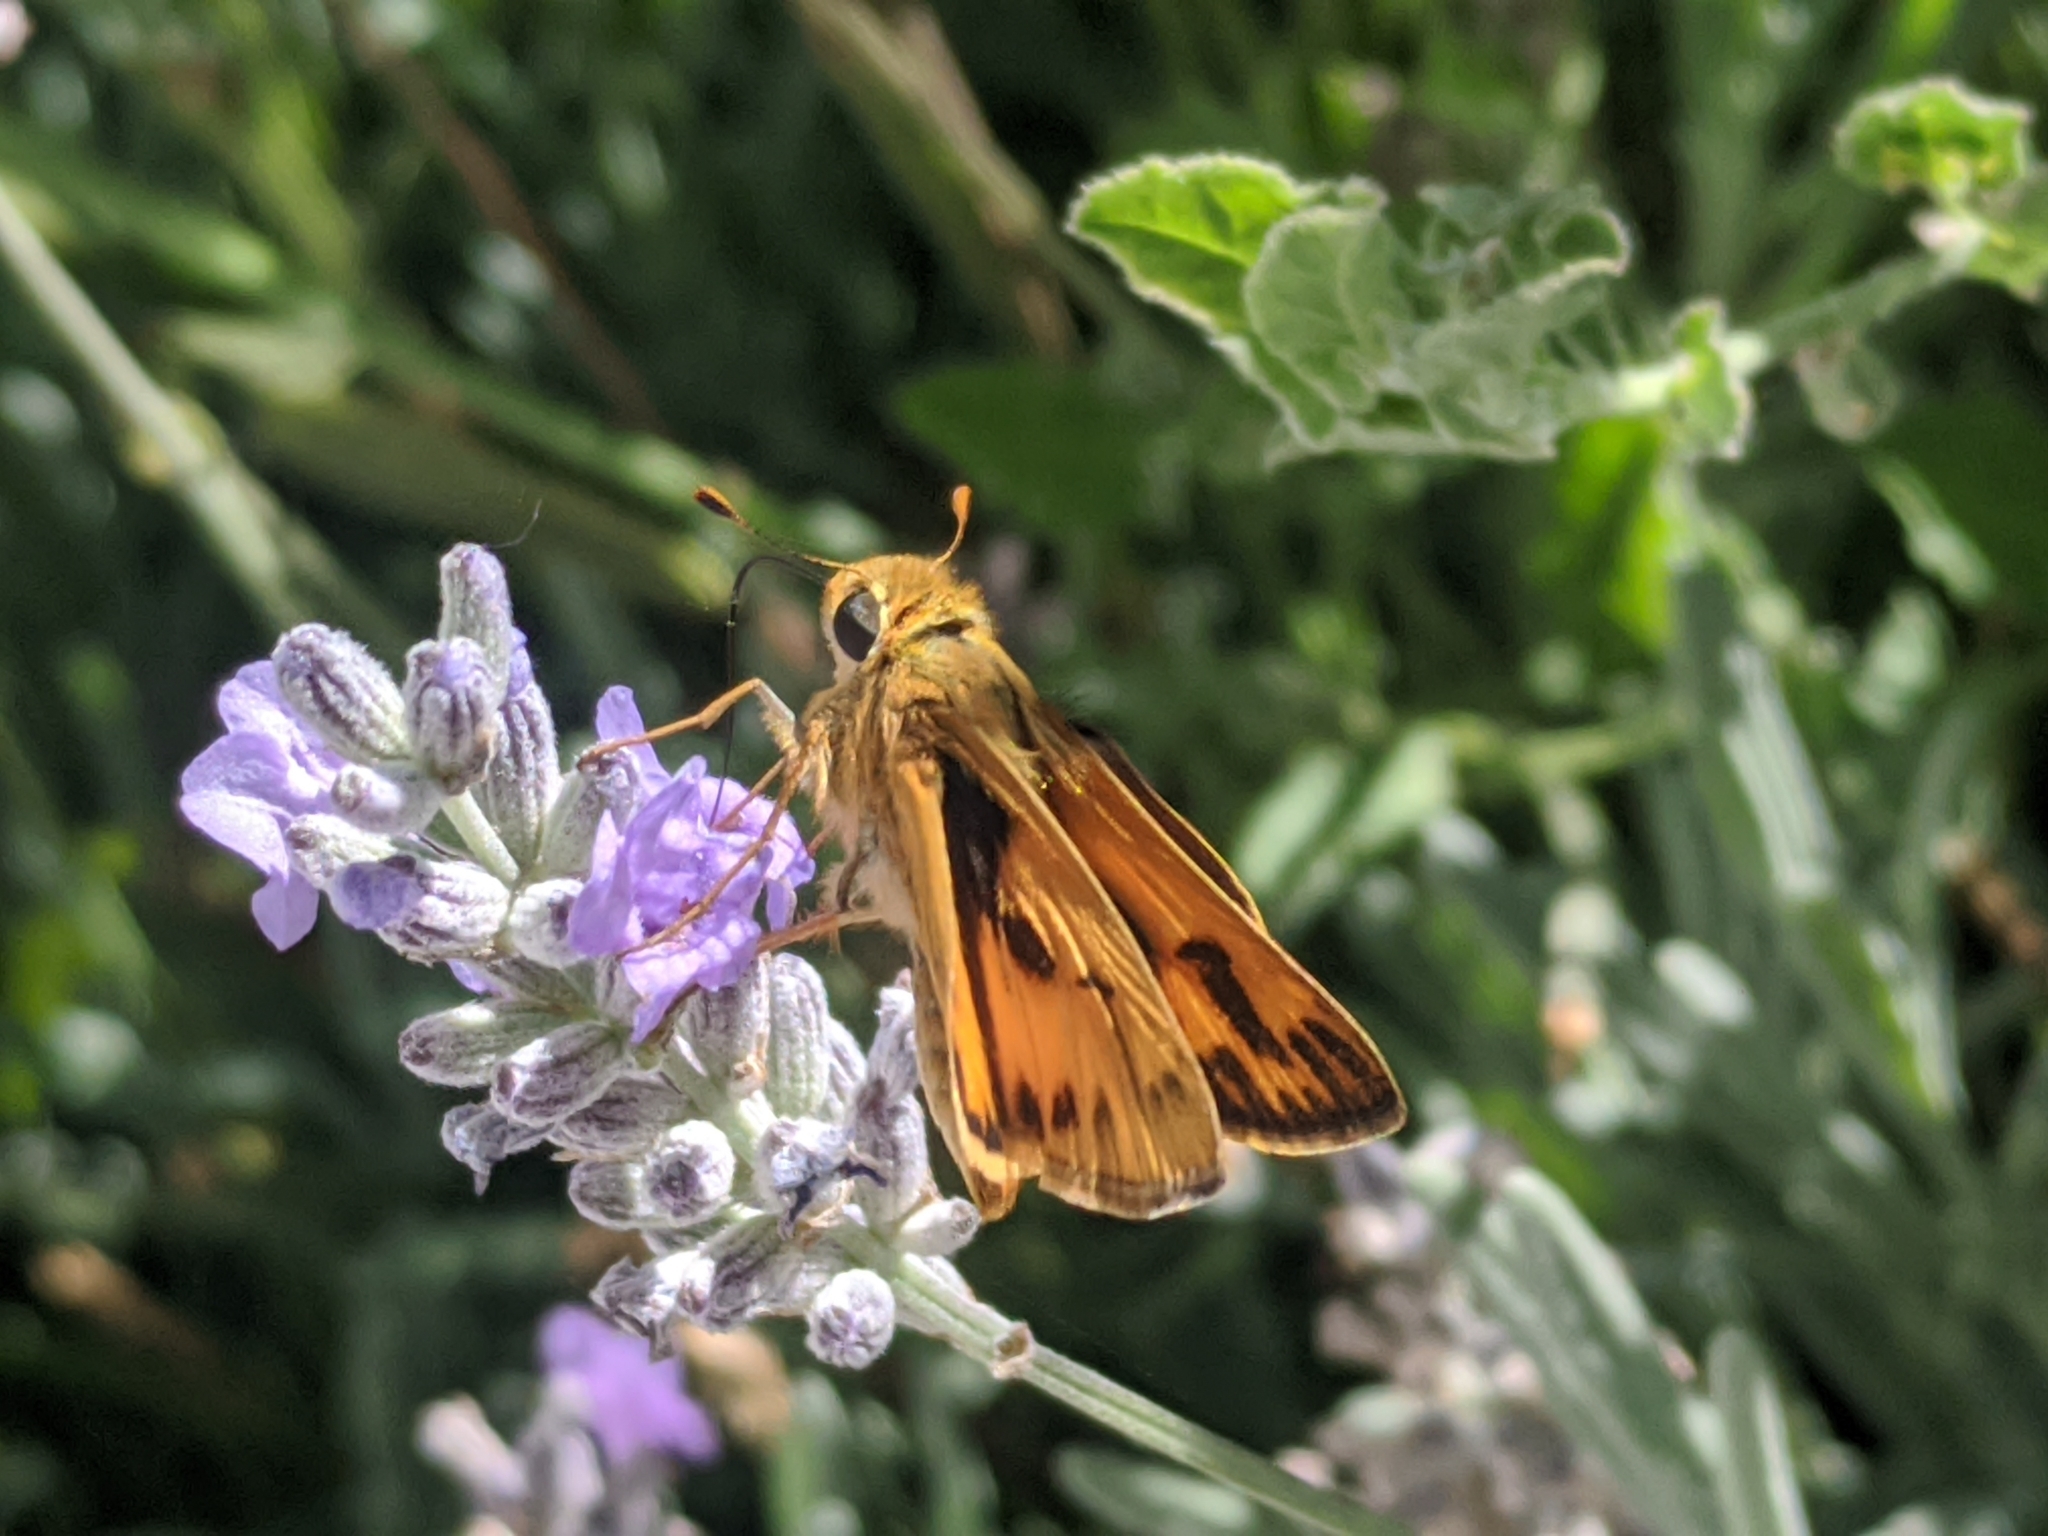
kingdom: Animalia
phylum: Arthropoda
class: Insecta
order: Lepidoptera
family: Hesperiidae
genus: Hylephila
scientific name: Hylephila phyleus
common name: Fiery skipper
